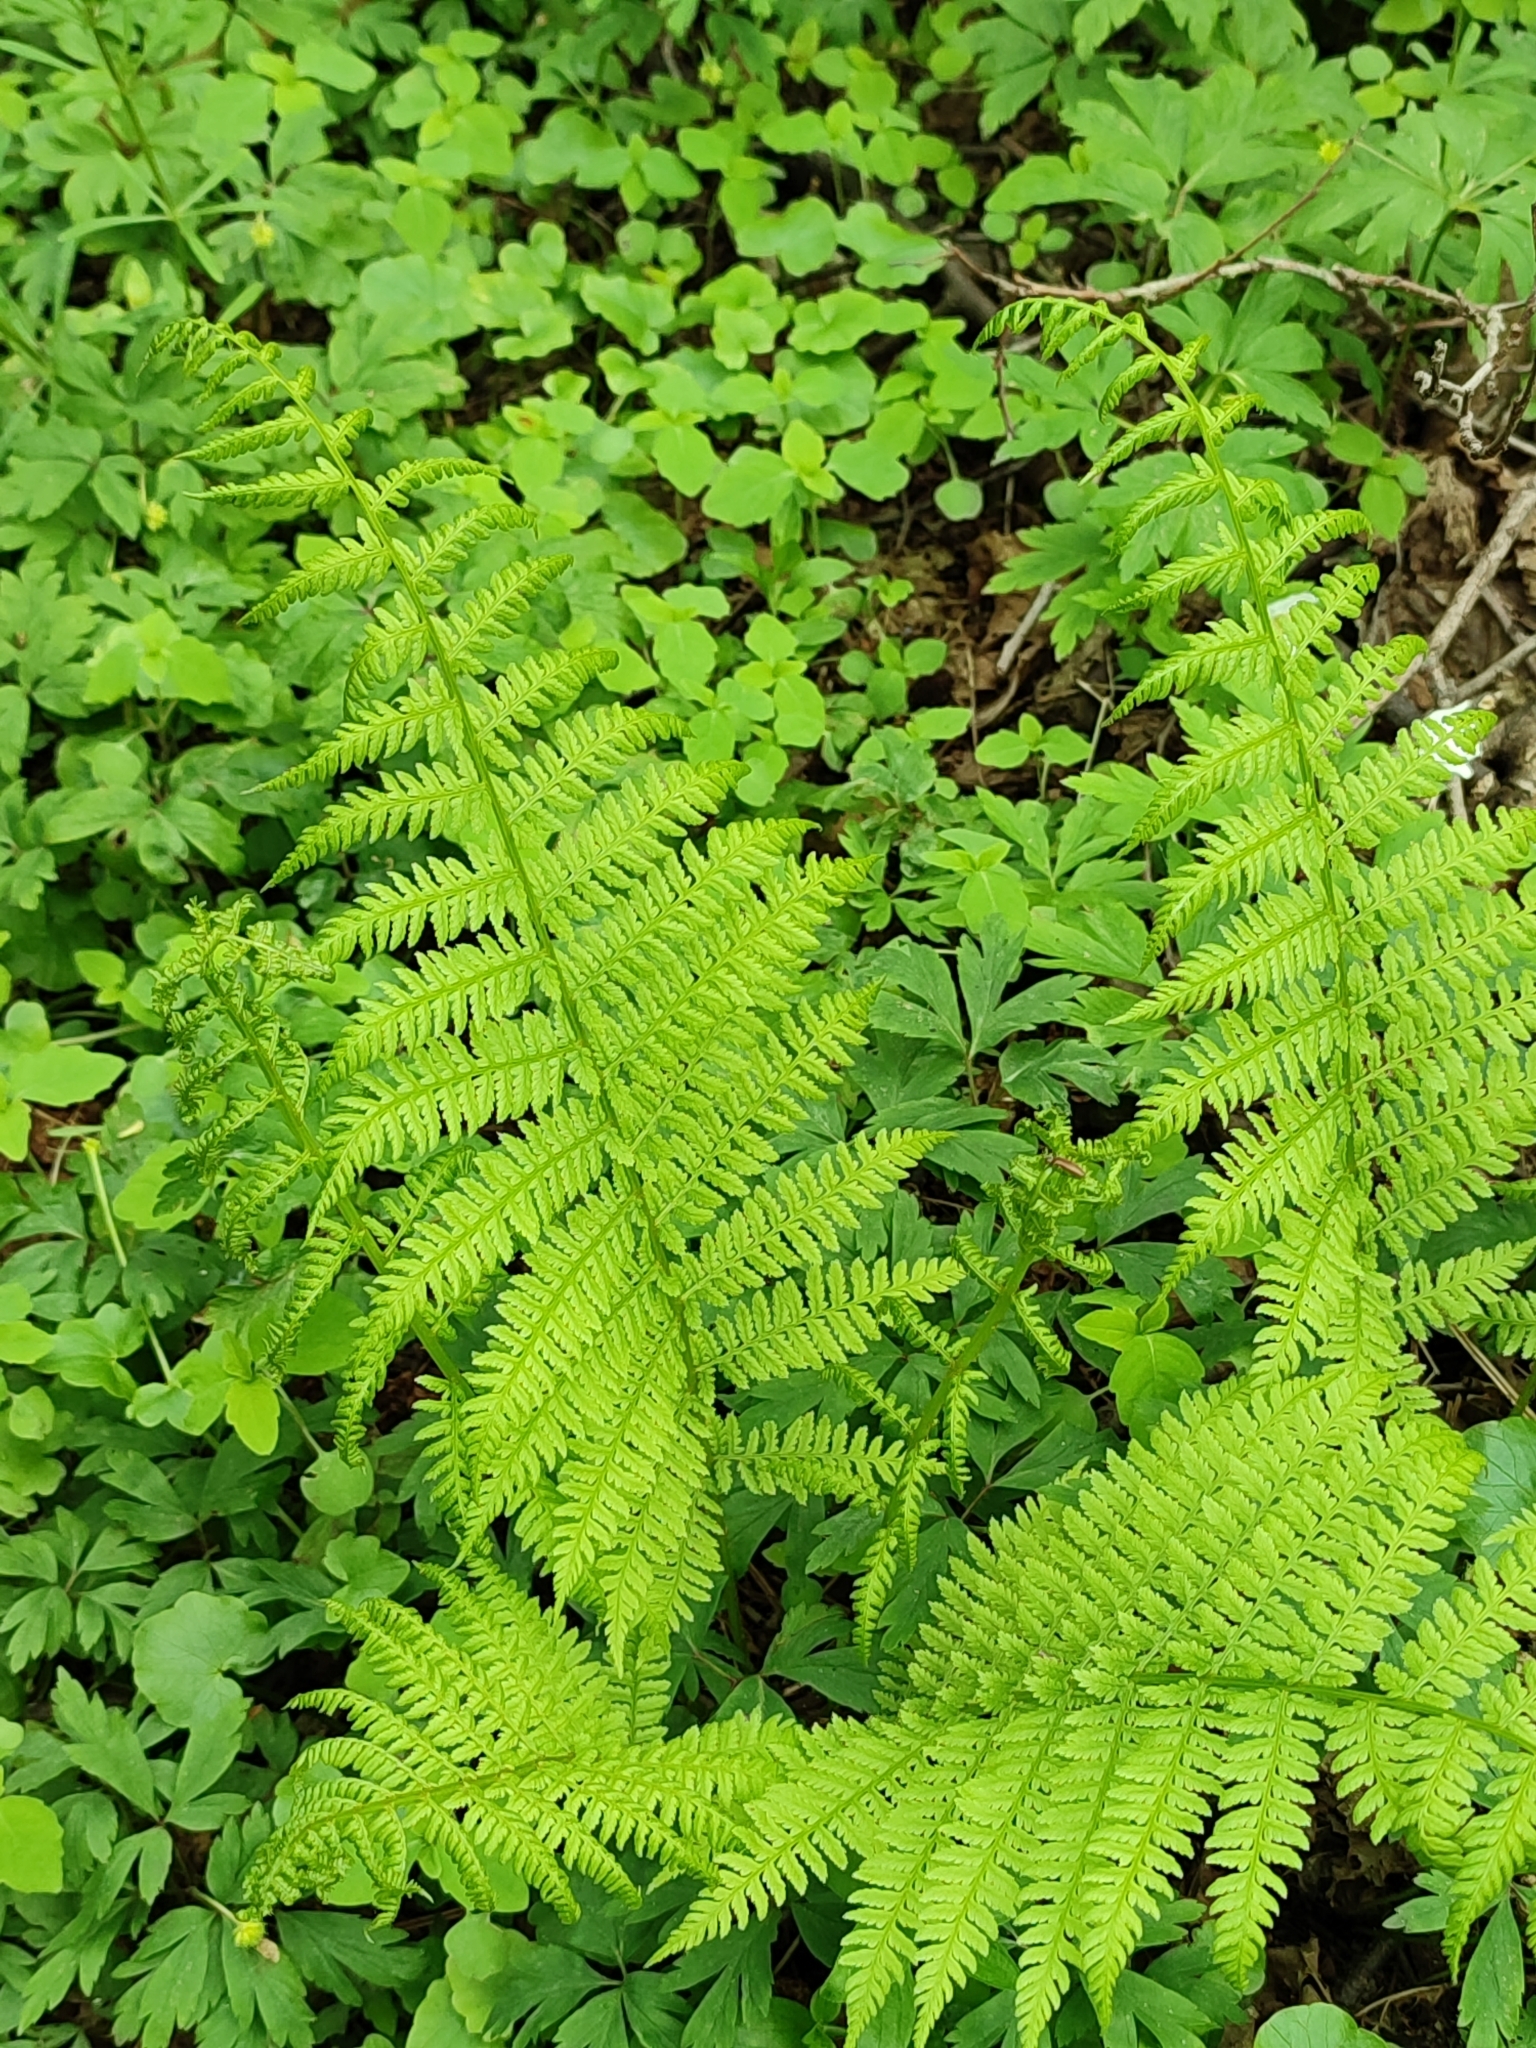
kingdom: Plantae
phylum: Tracheophyta
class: Polypodiopsida
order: Polypodiales
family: Athyriaceae
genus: Athyrium
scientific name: Athyrium filix-femina
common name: Lady fern
